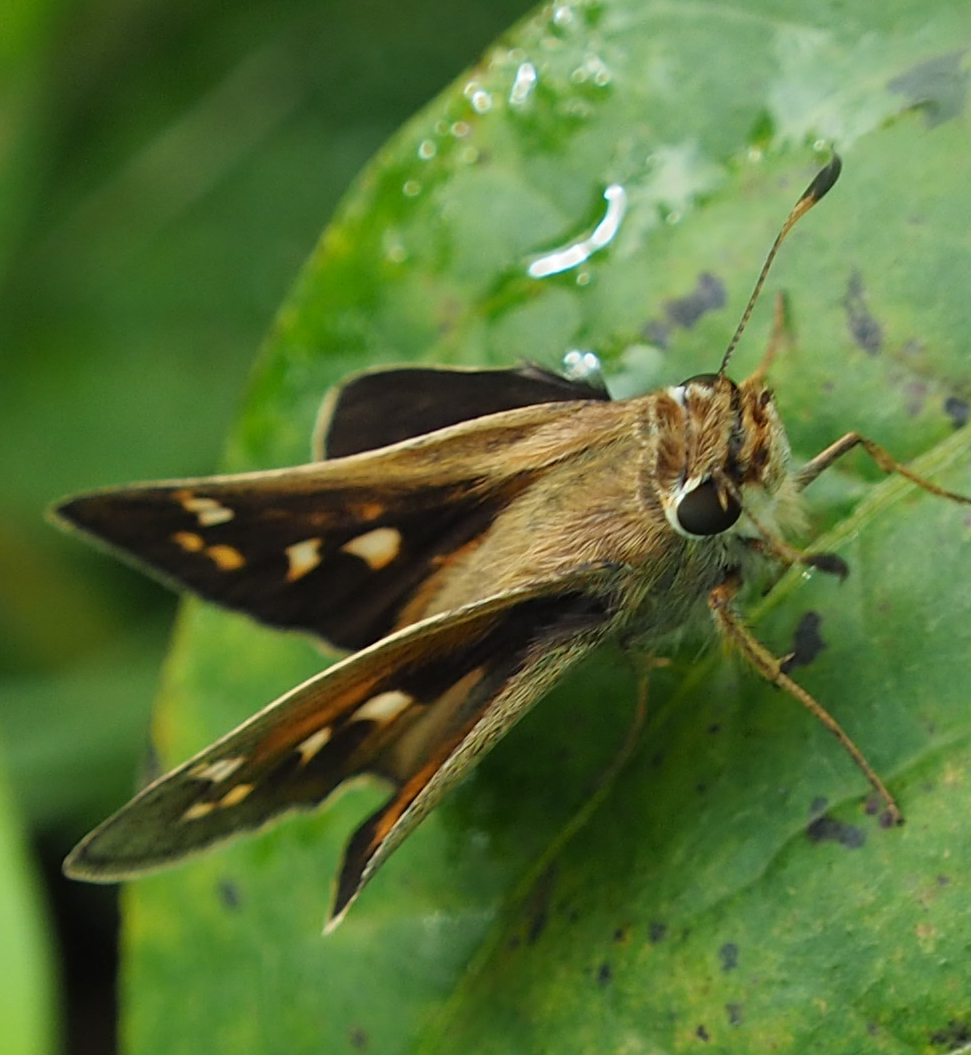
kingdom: Animalia
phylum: Arthropoda
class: Insecta
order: Lepidoptera
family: Hesperiidae
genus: Atalopedes
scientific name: Atalopedes
